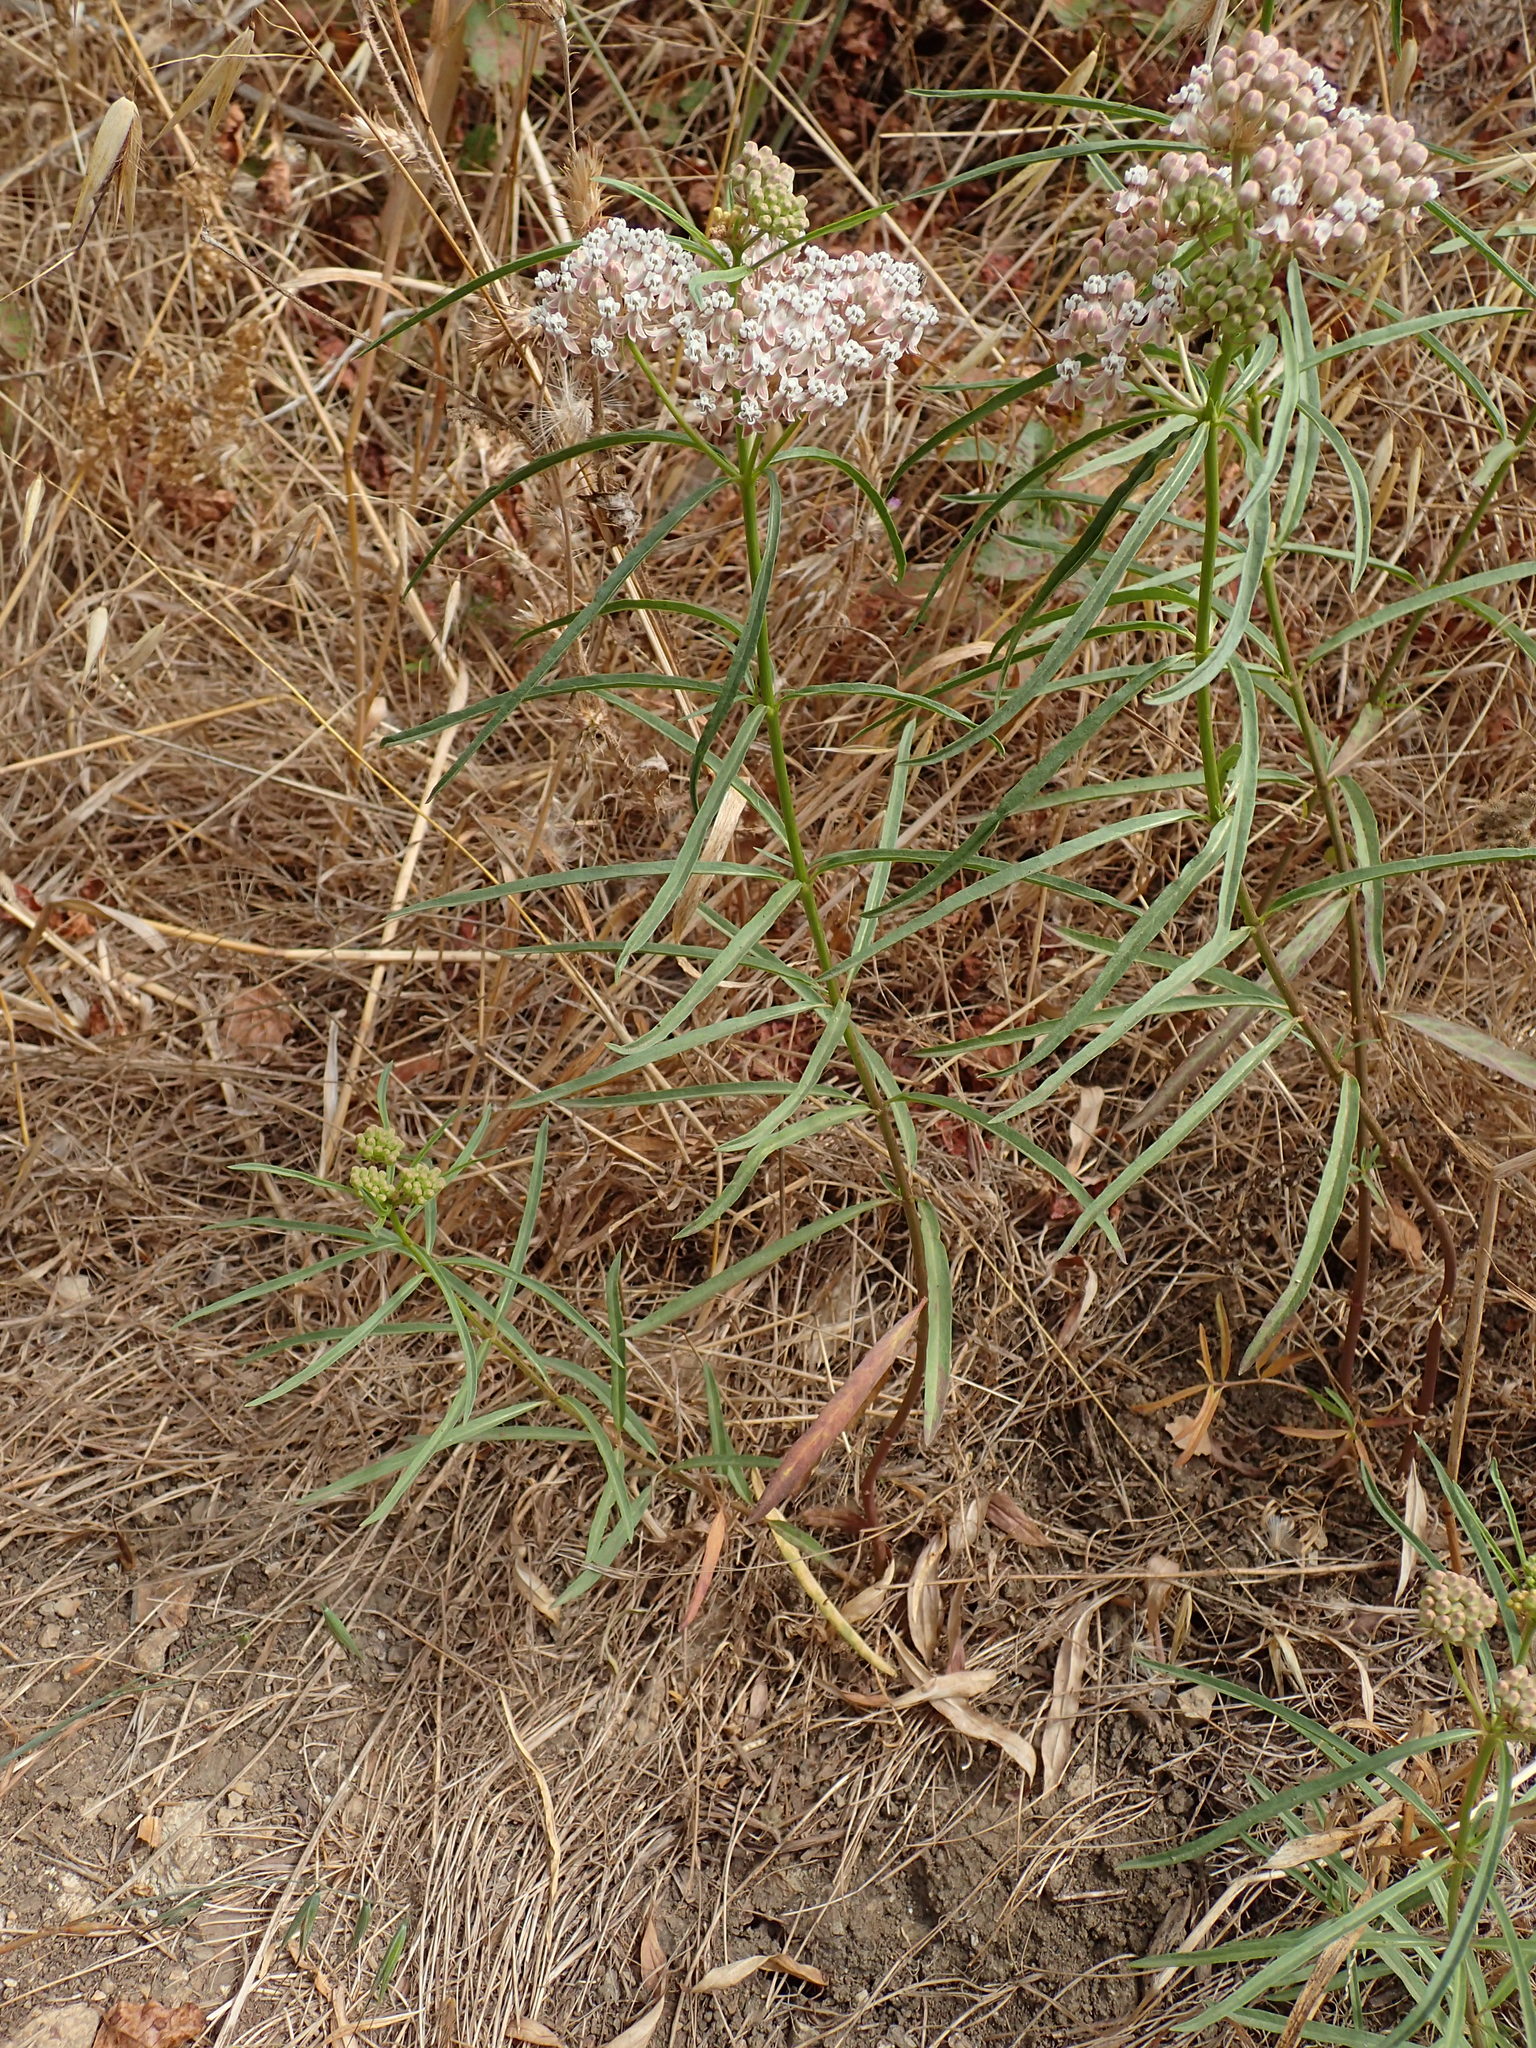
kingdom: Plantae
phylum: Tracheophyta
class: Magnoliopsida
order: Gentianales
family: Apocynaceae
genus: Asclepias
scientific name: Asclepias fascicularis
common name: Mexican milkweed
